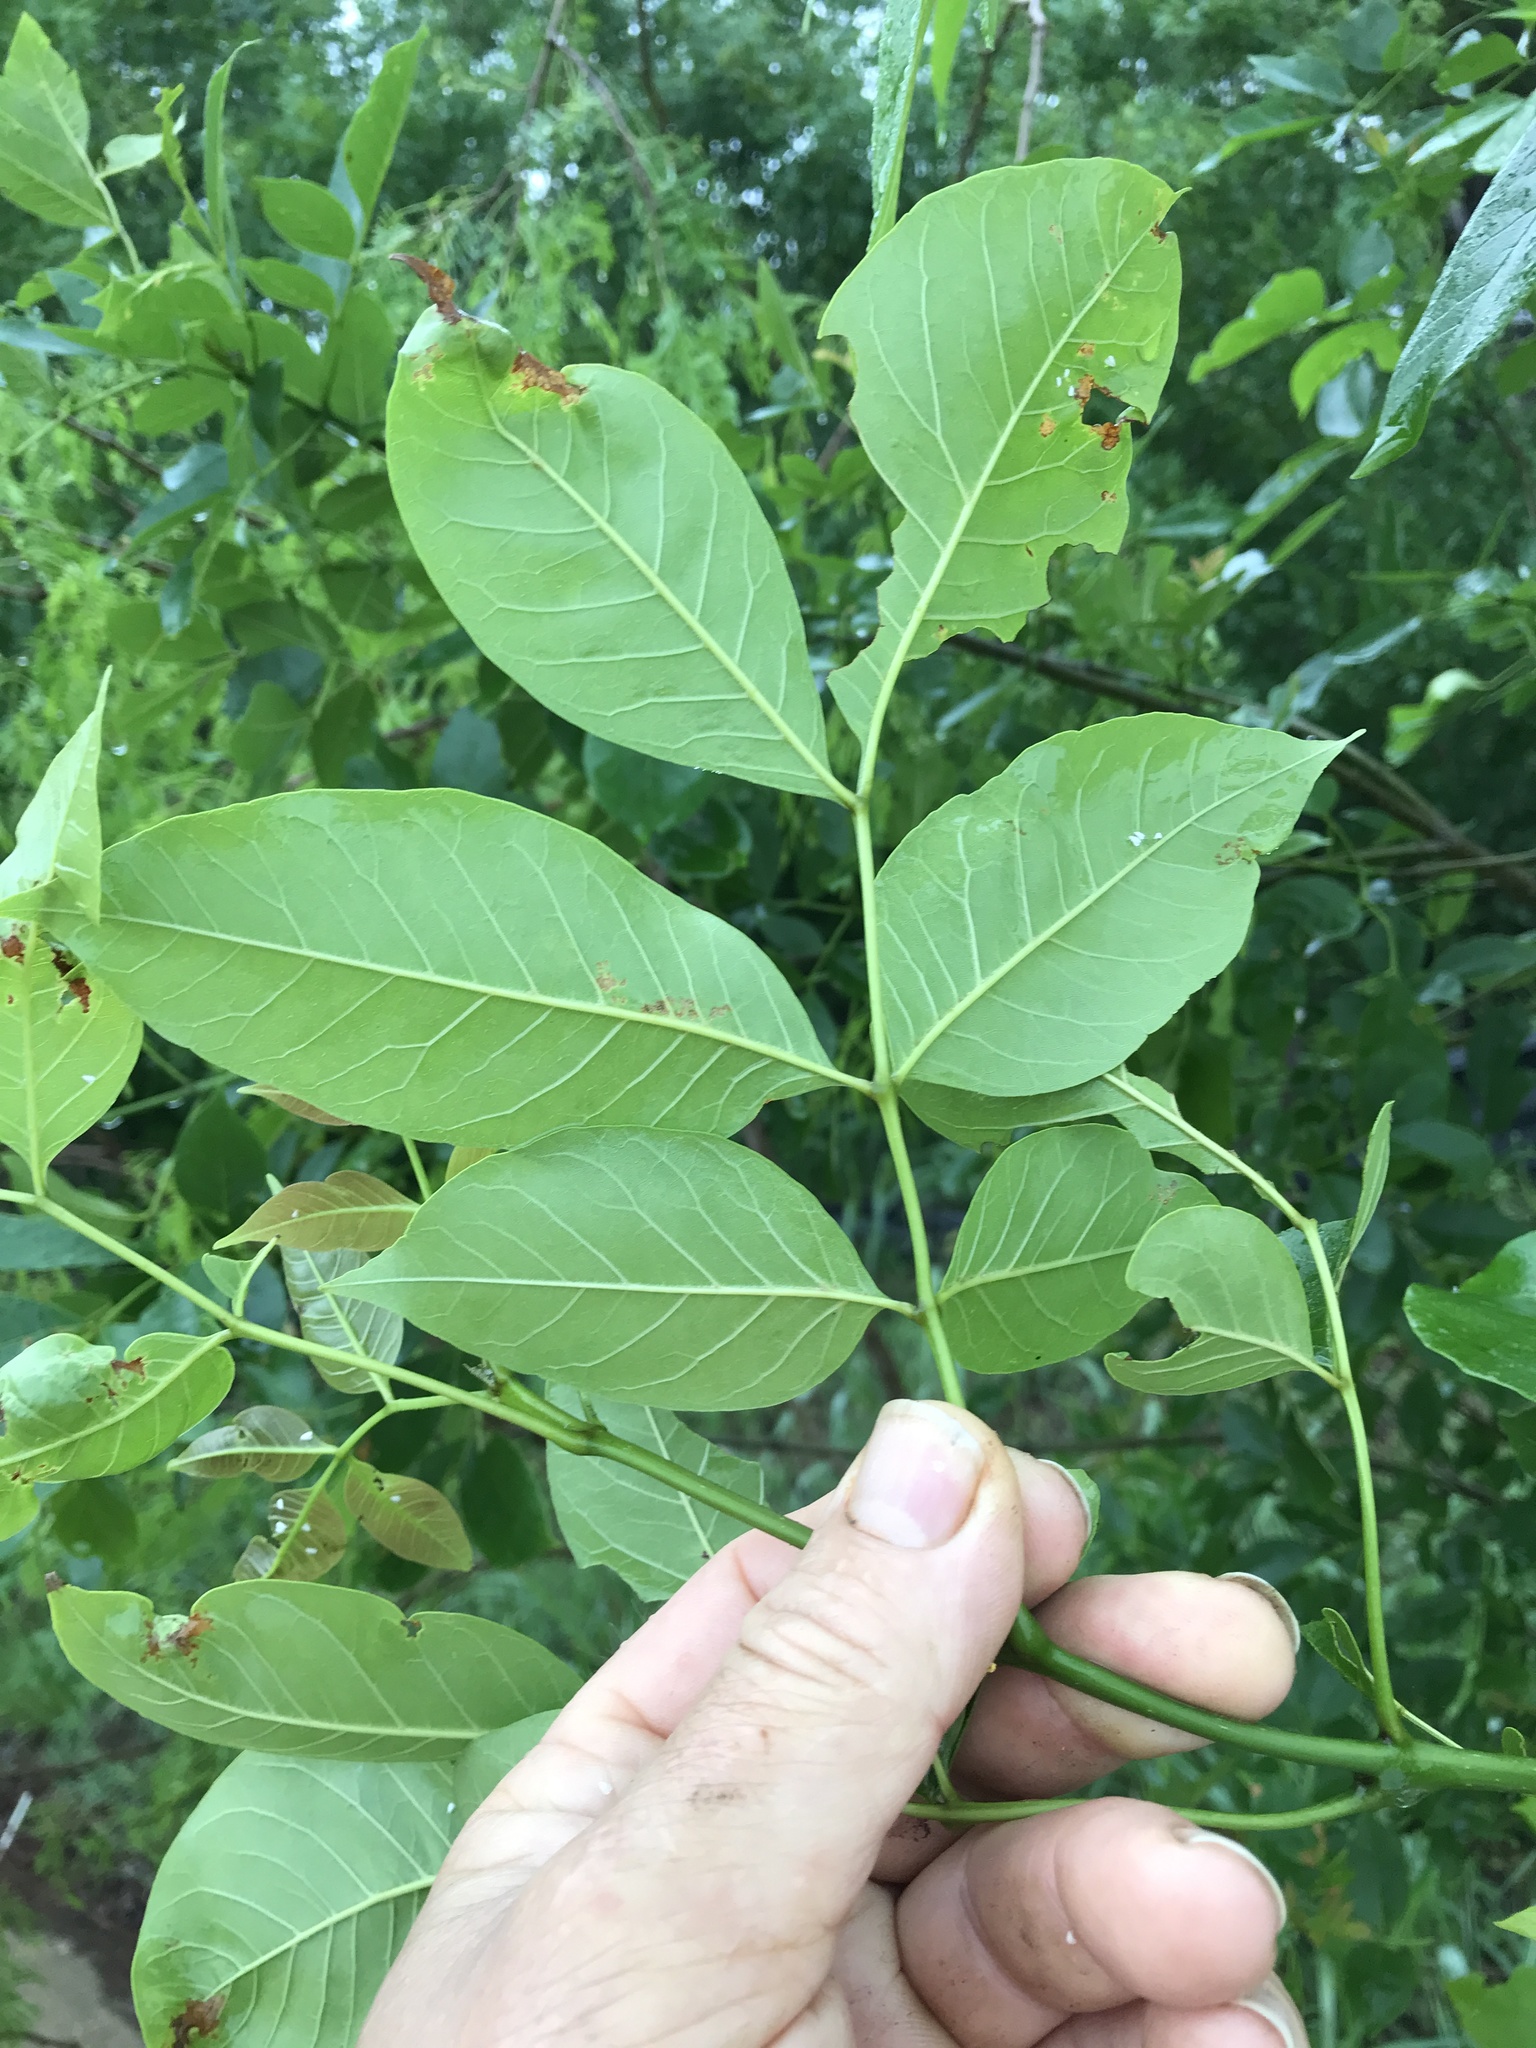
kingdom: Plantae
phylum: Tracheophyta
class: Magnoliopsida
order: Lamiales
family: Oleaceae
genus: Fraxinus
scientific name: Fraxinus pennsylvanica
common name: Green ash
